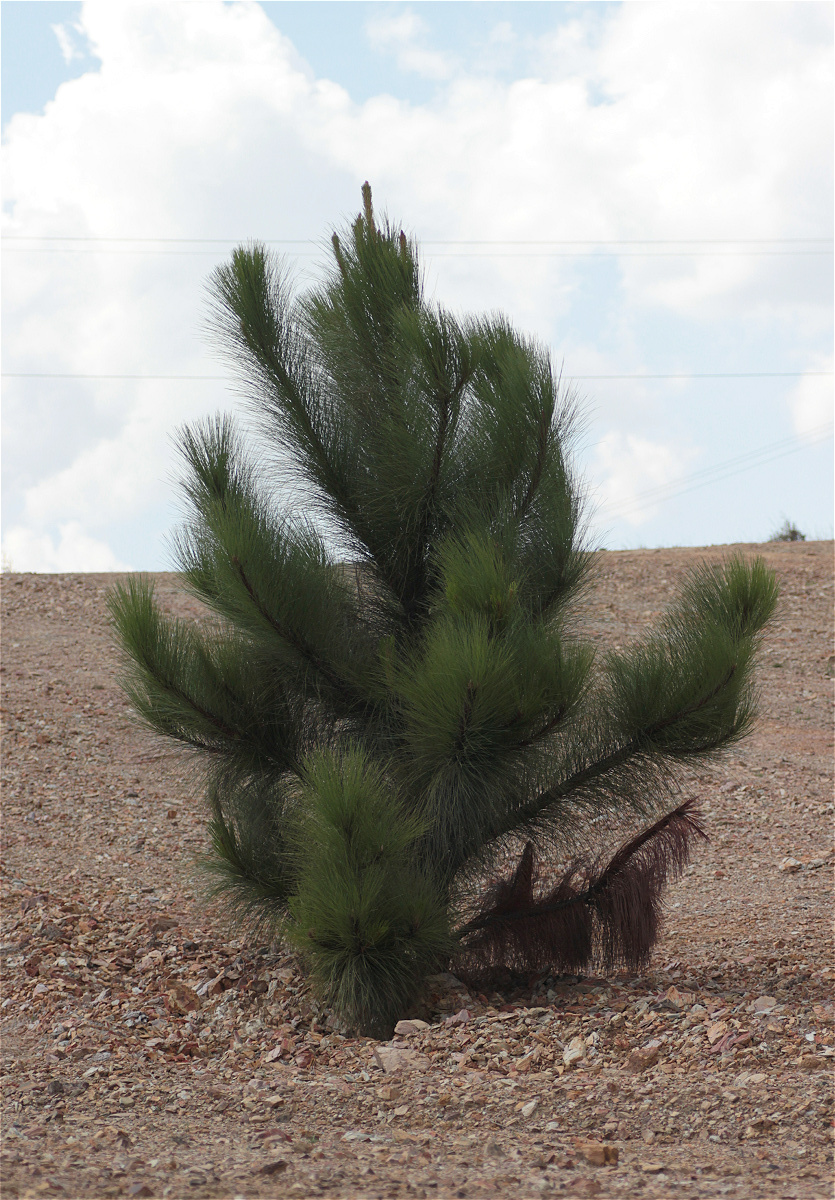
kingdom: Plantae
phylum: Tracheophyta
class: Pinopsida
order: Pinales
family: Pinaceae
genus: Pinus
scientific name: Pinus patula
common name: Mexican weeping pine
